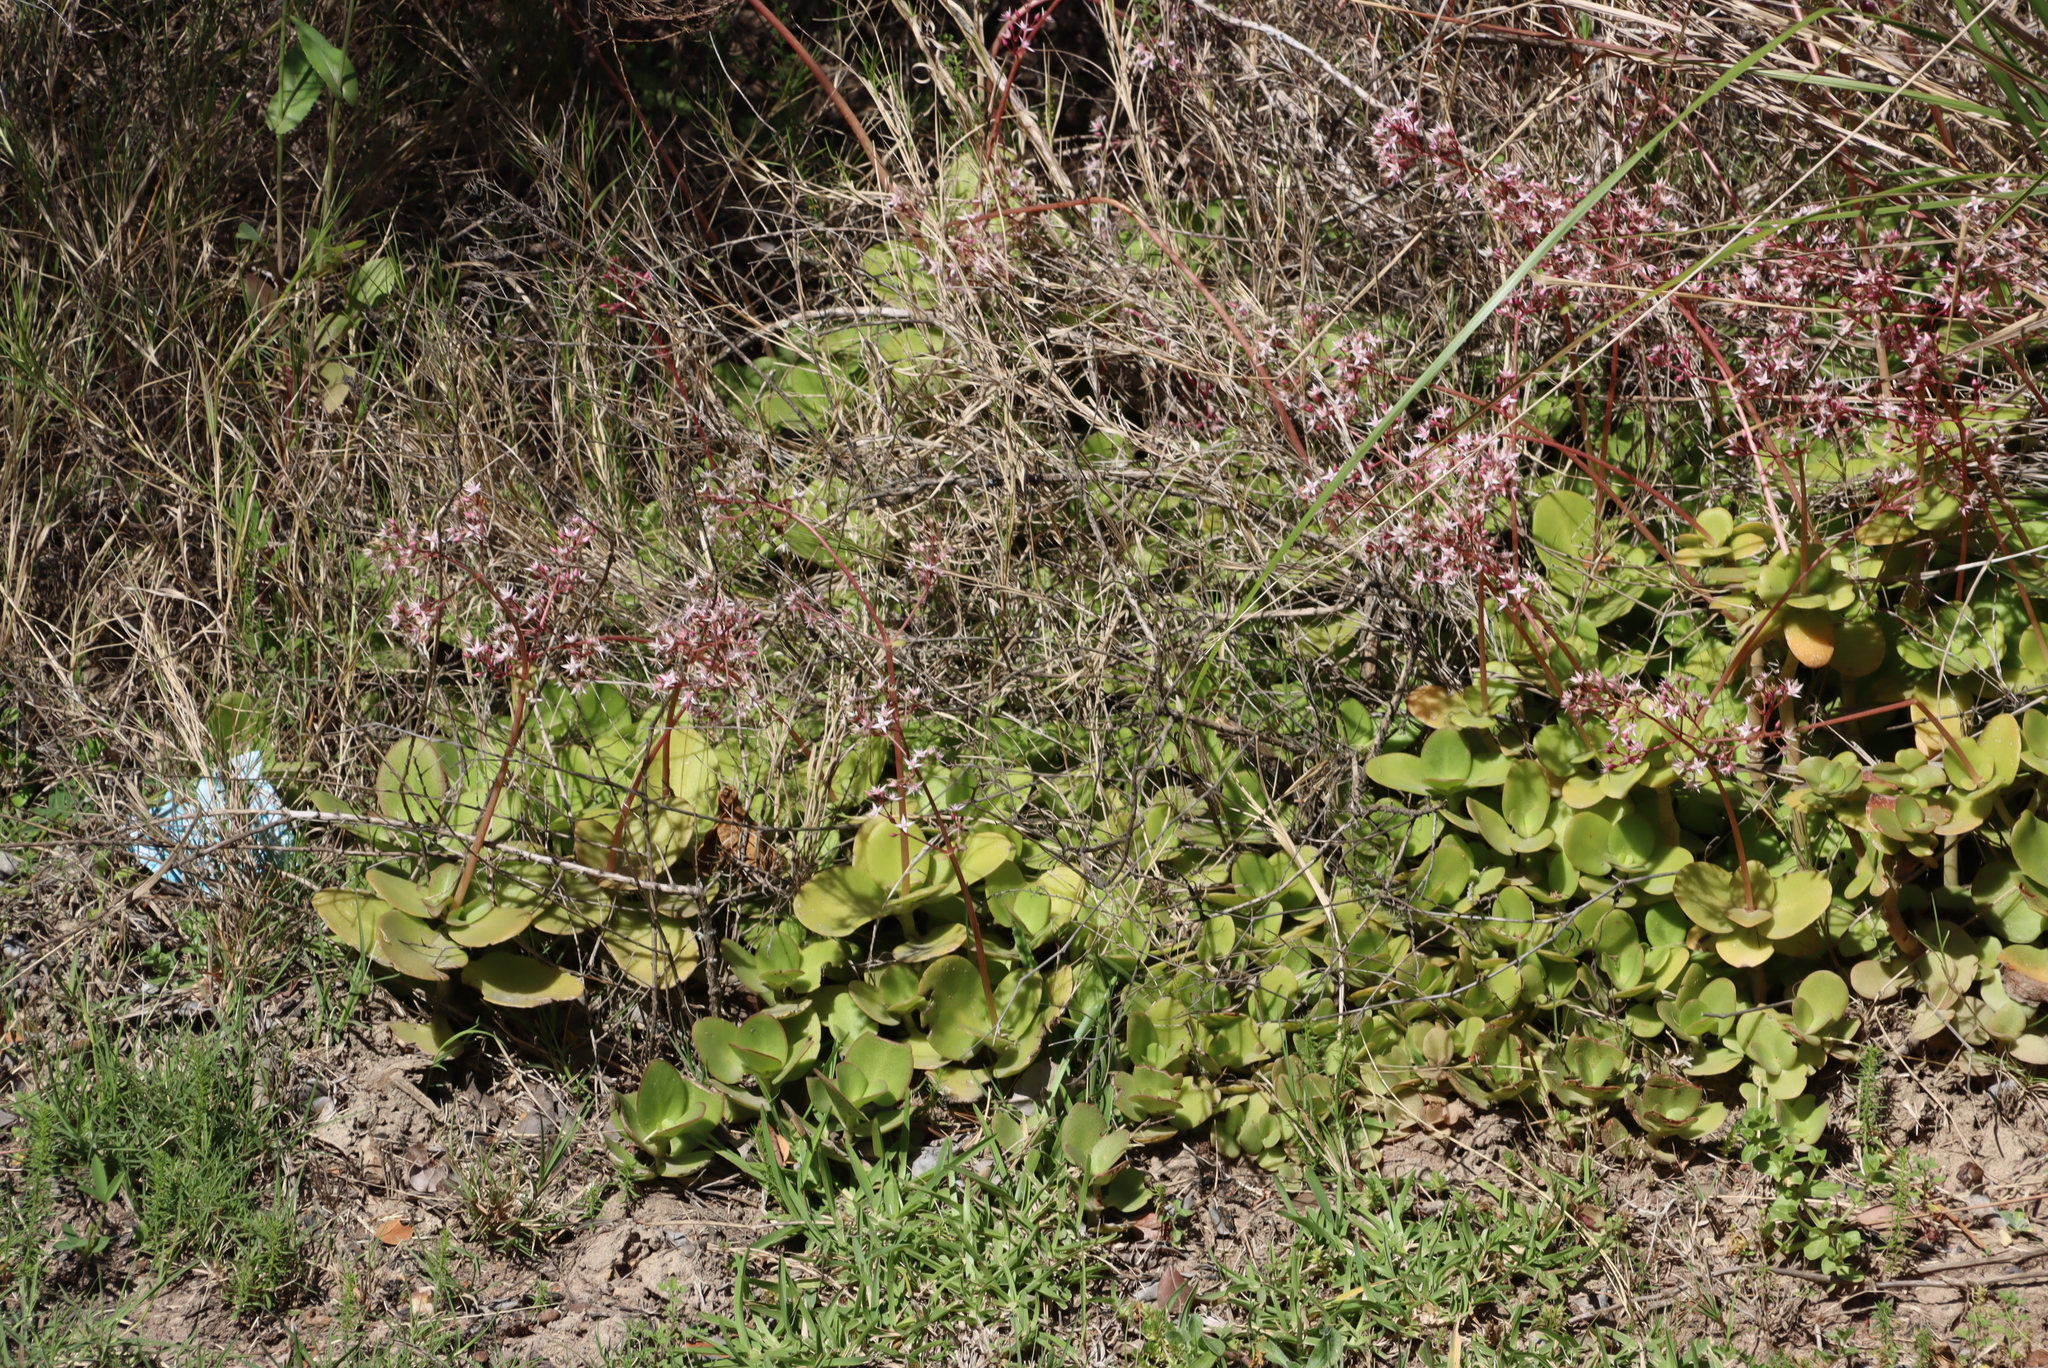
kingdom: Plantae
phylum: Tracheophyta
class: Magnoliopsida
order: Saxifragales
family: Crassulaceae
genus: Crassula
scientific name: Crassula multicava
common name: Cape province pygmyweed
